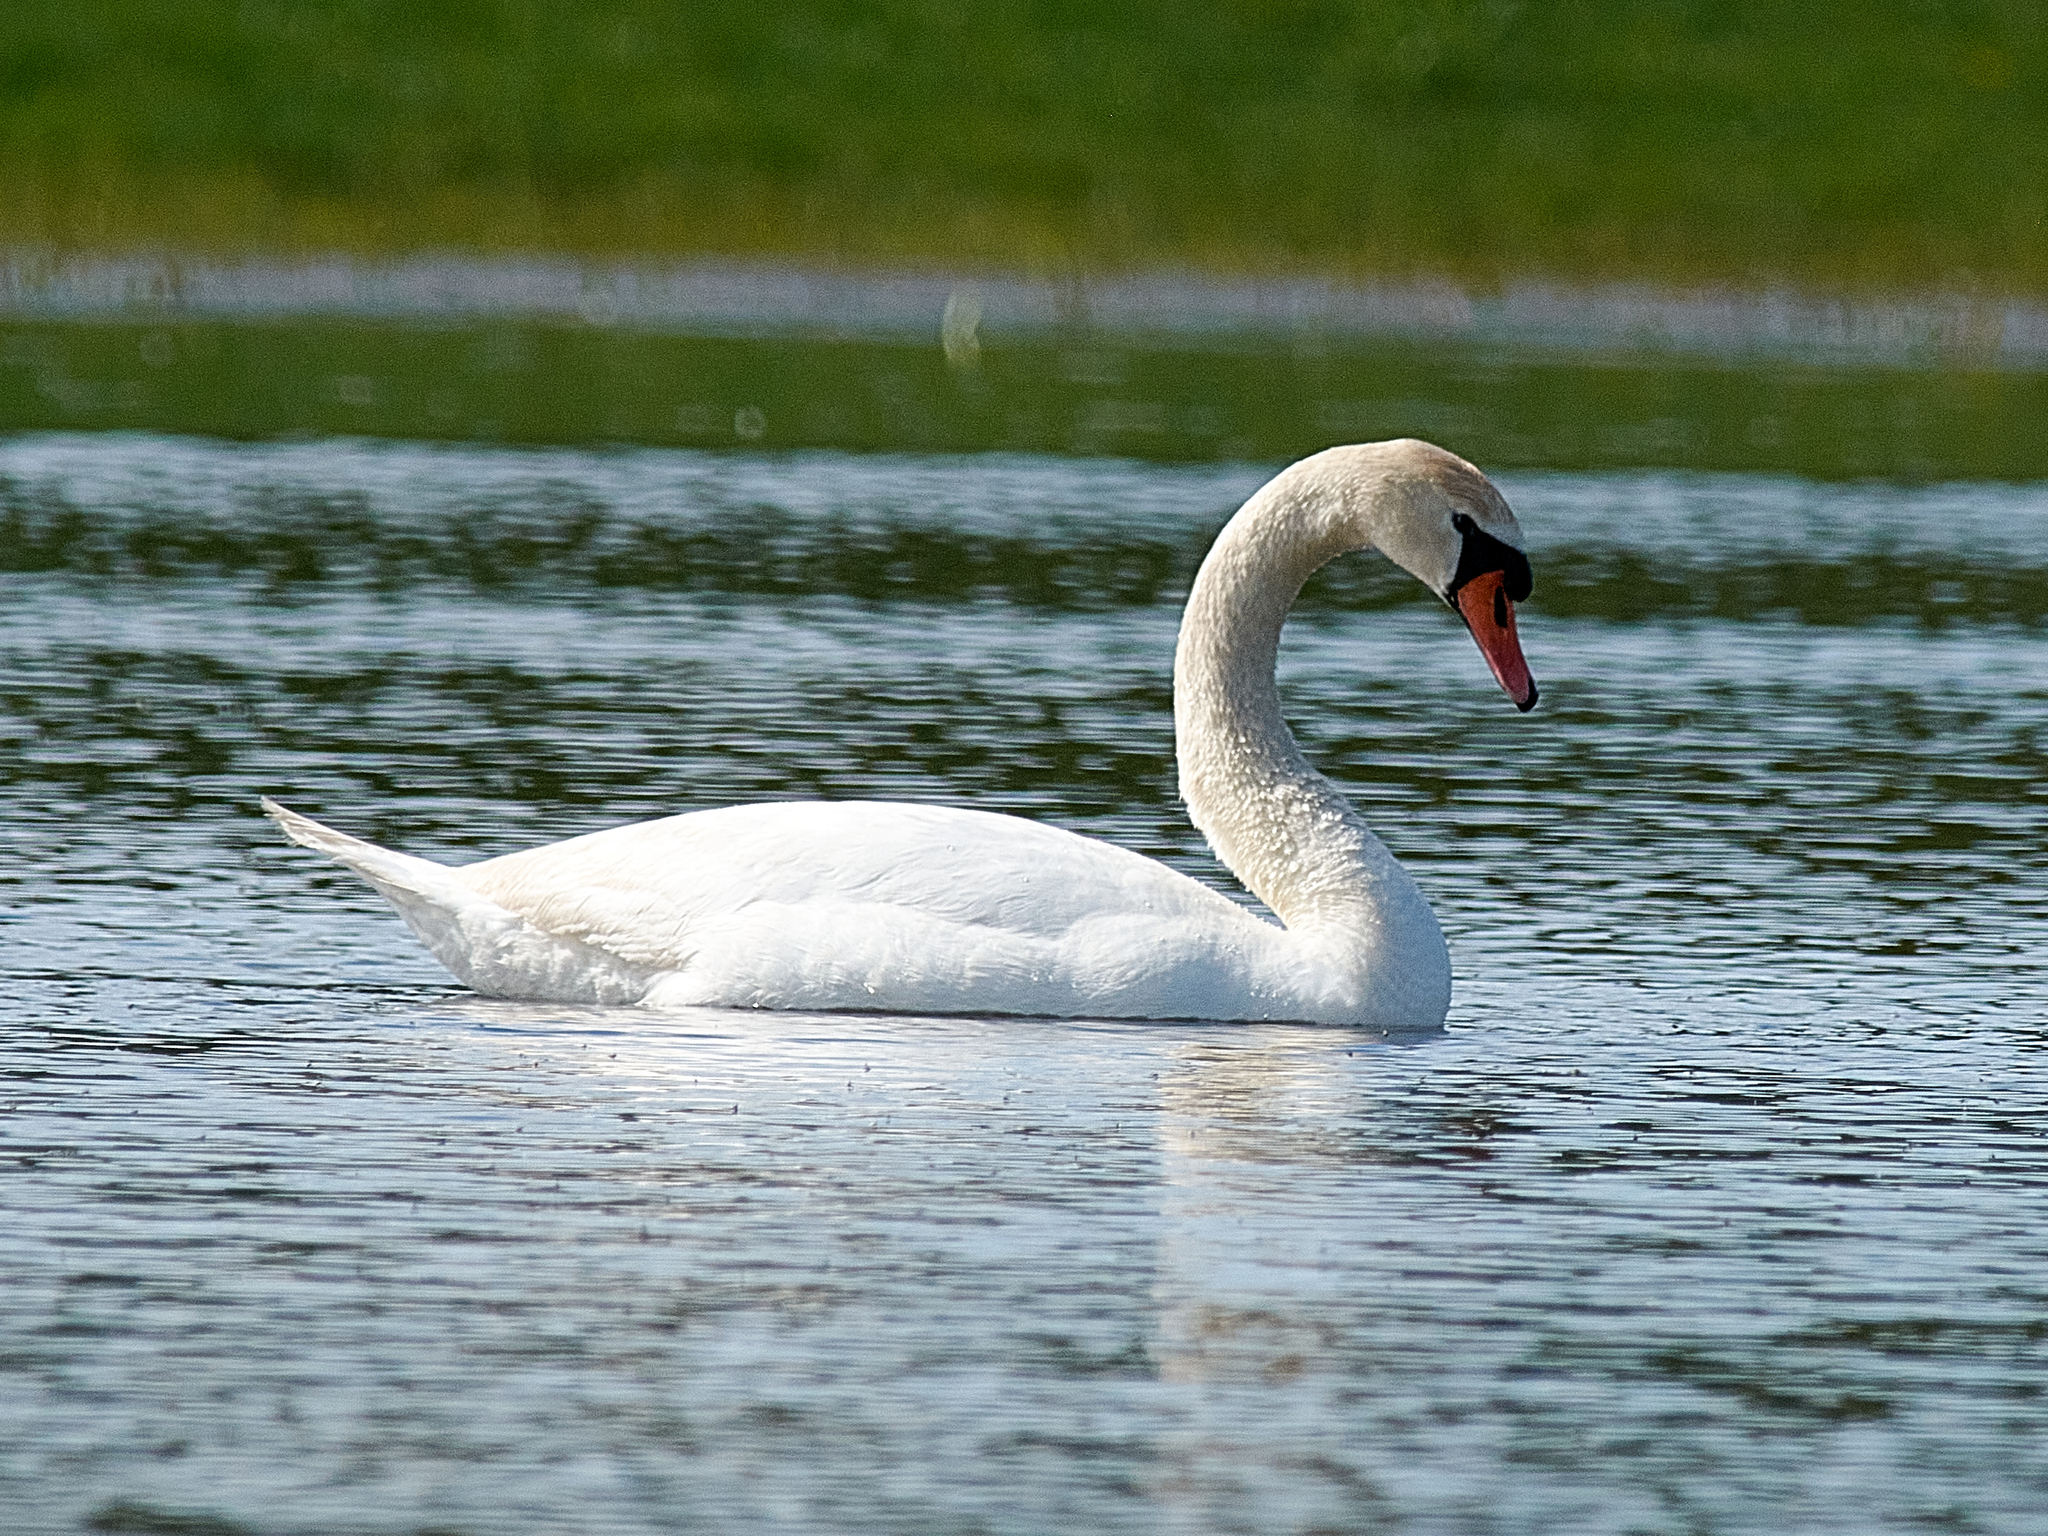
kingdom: Animalia
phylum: Chordata
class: Aves
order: Anseriformes
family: Anatidae
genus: Cygnus
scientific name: Cygnus olor
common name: Mute swan
